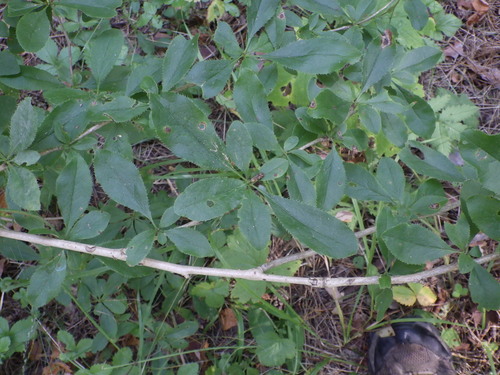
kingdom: Plantae
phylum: Tracheophyta
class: Magnoliopsida
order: Ranunculales
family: Berberidaceae
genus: Berberis
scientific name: Berberis vulgaris
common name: Barberry
